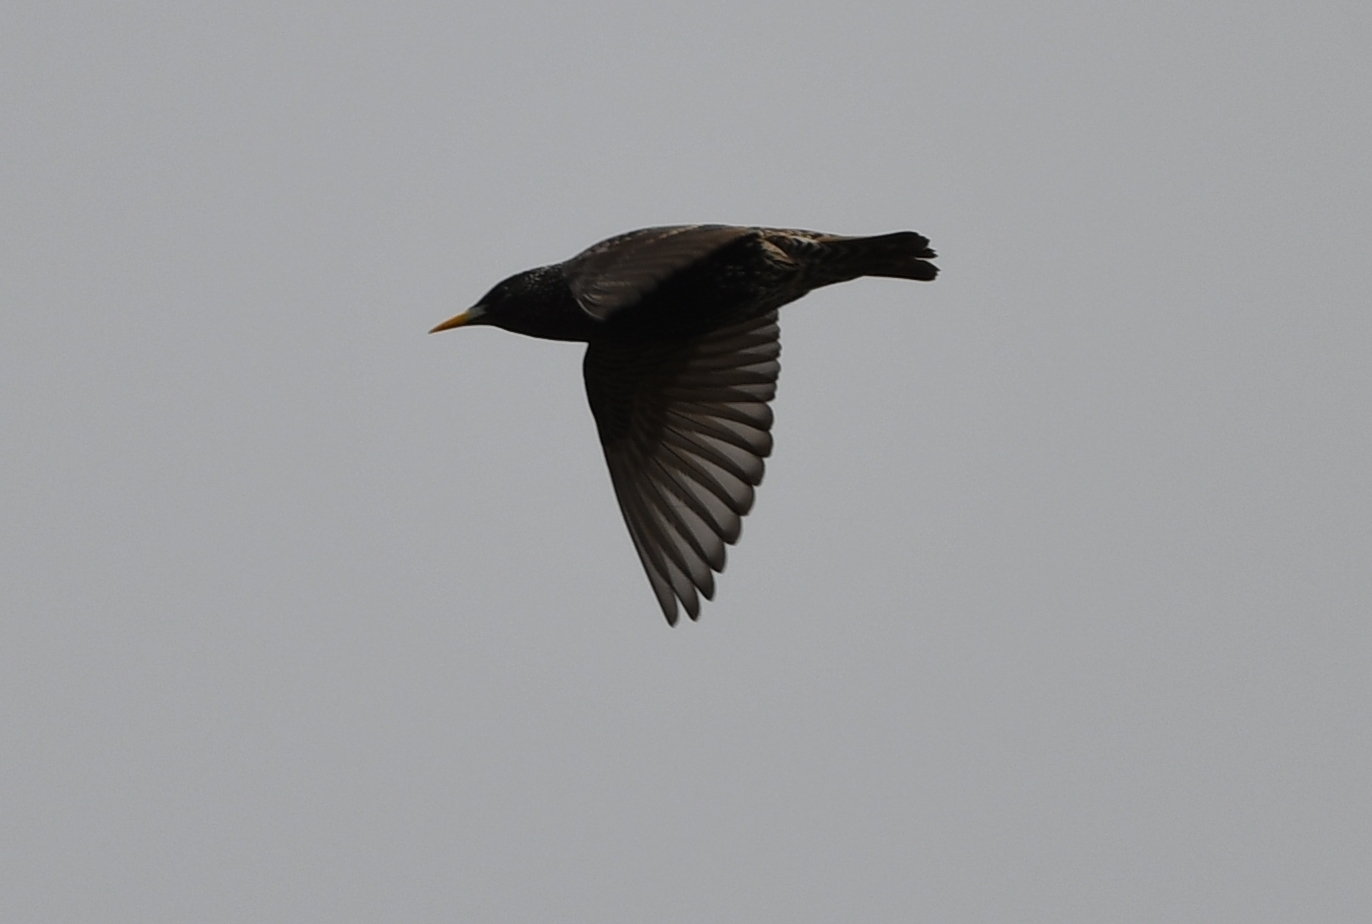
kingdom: Animalia
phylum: Chordata
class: Aves
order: Passeriformes
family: Sturnidae
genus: Sturnus
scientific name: Sturnus vulgaris
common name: Common starling
